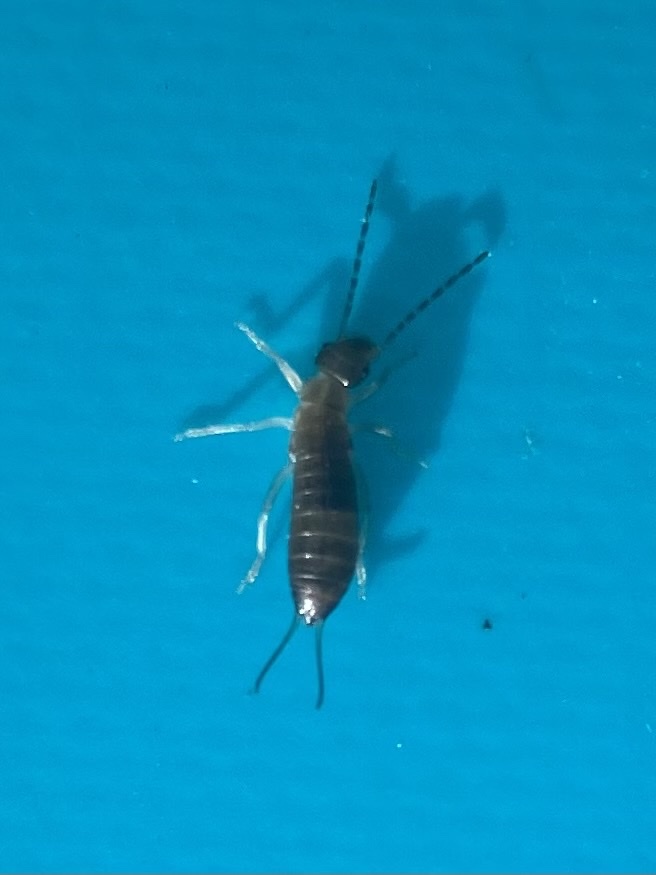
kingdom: Animalia
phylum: Arthropoda
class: Insecta
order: Dermaptera
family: Forficulidae
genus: Forficula
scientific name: Forficula
